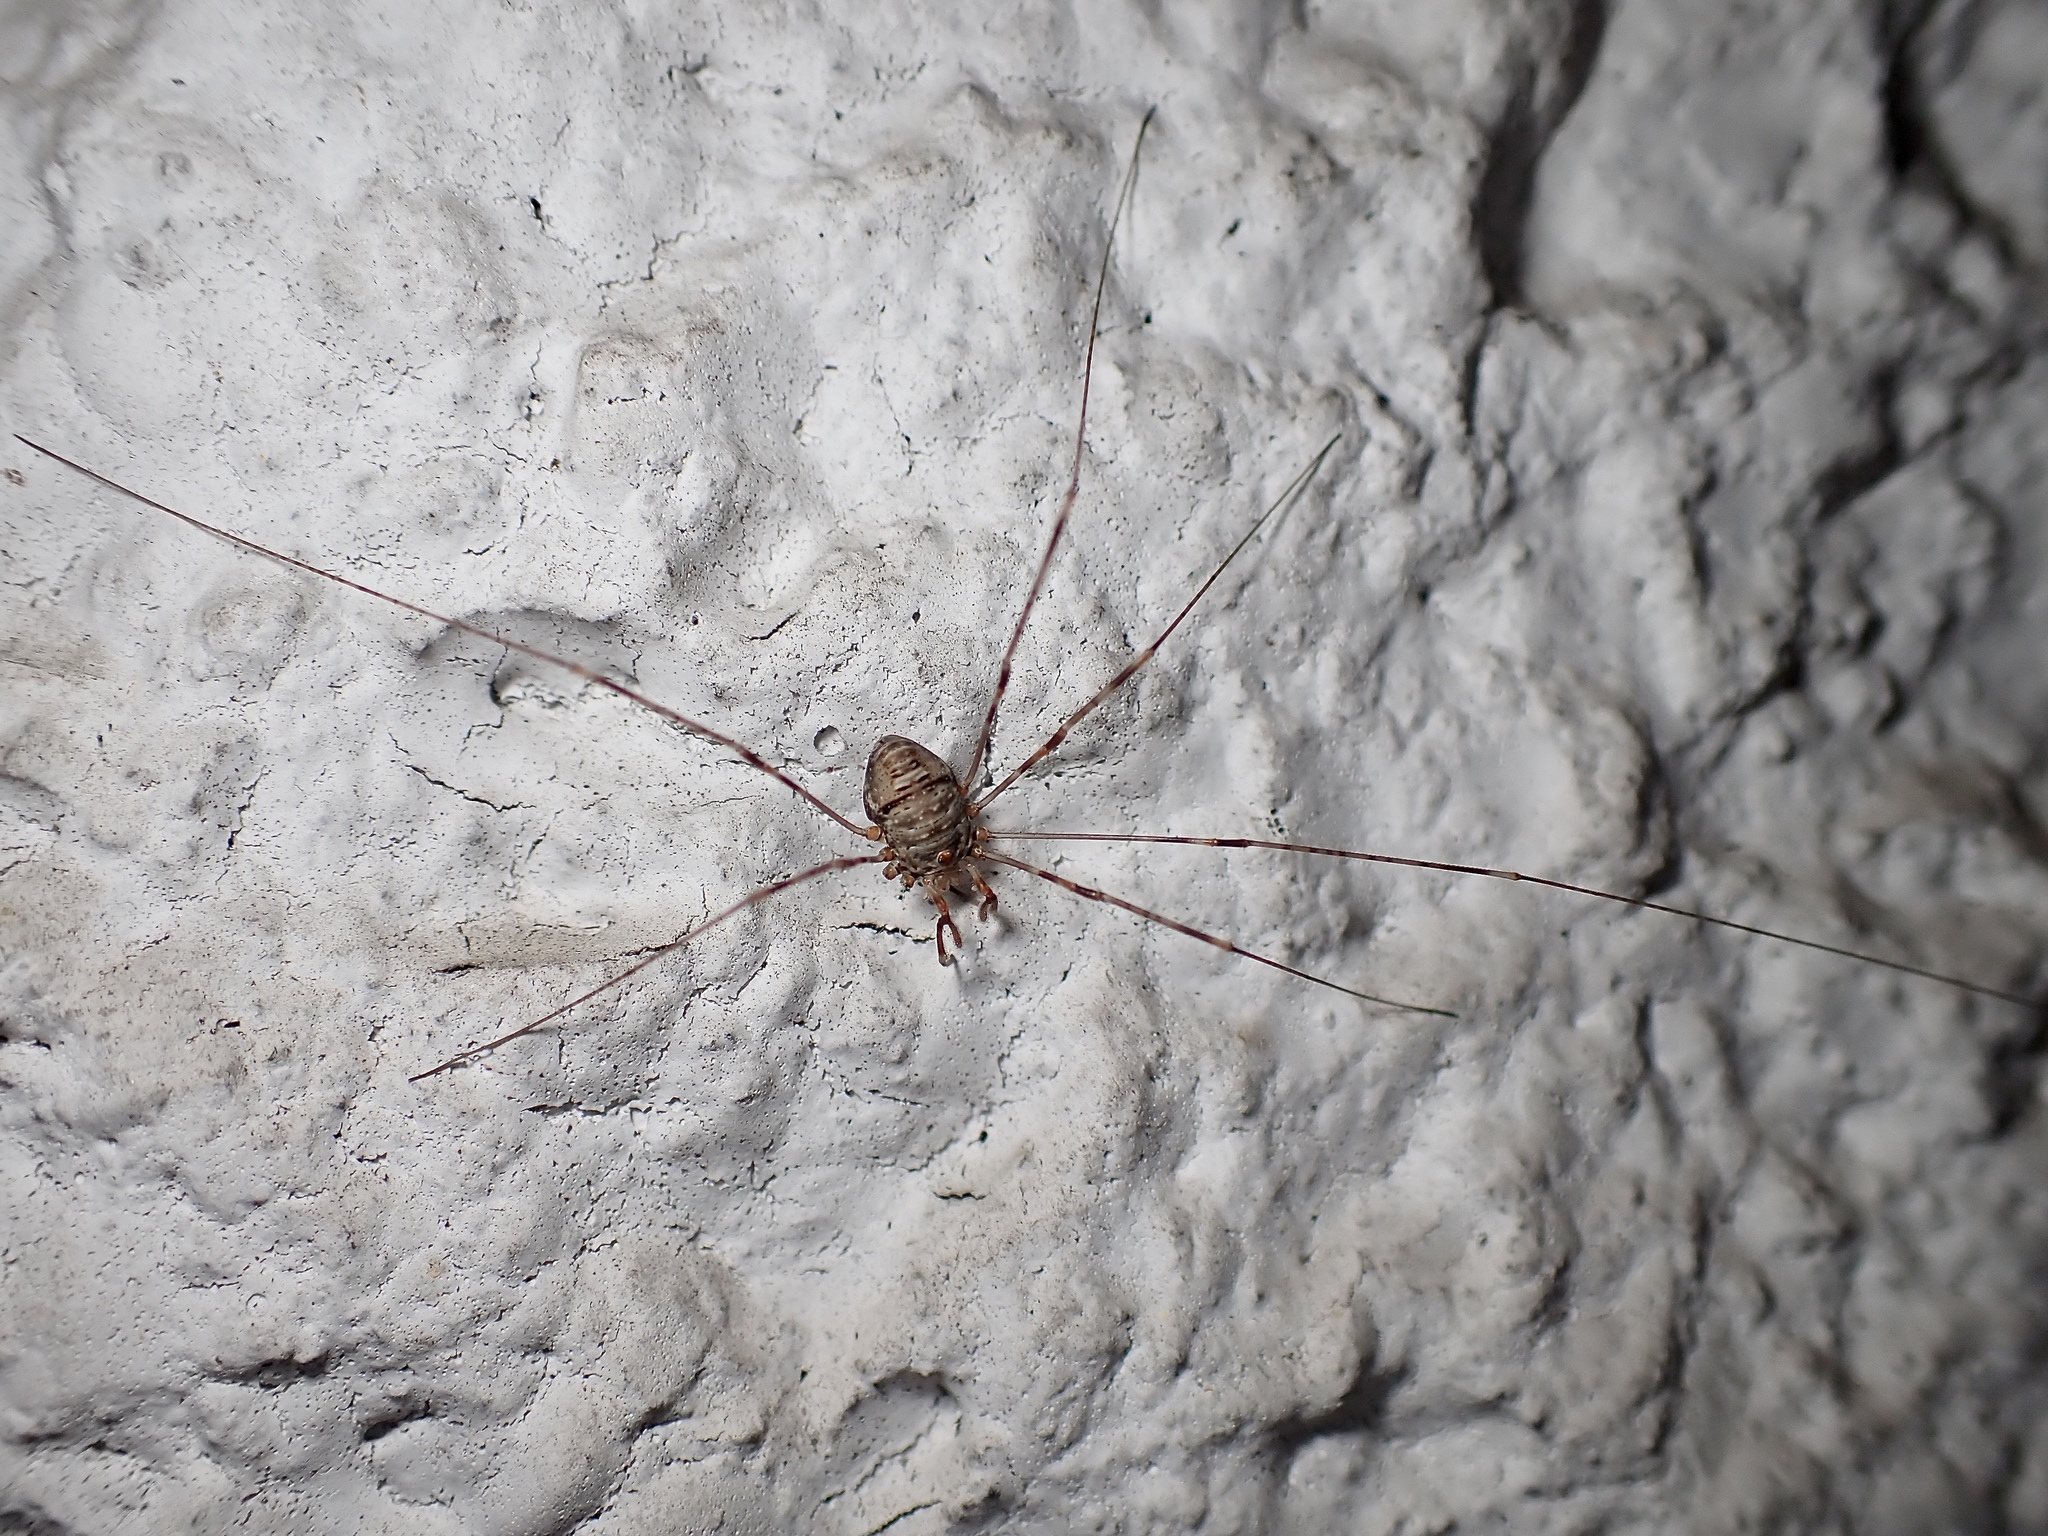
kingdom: Animalia
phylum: Arthropoda
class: Arachnida
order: Opiliones
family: Phalangiidae
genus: Dicranopalpus
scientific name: Dicranopalpus ramosus
